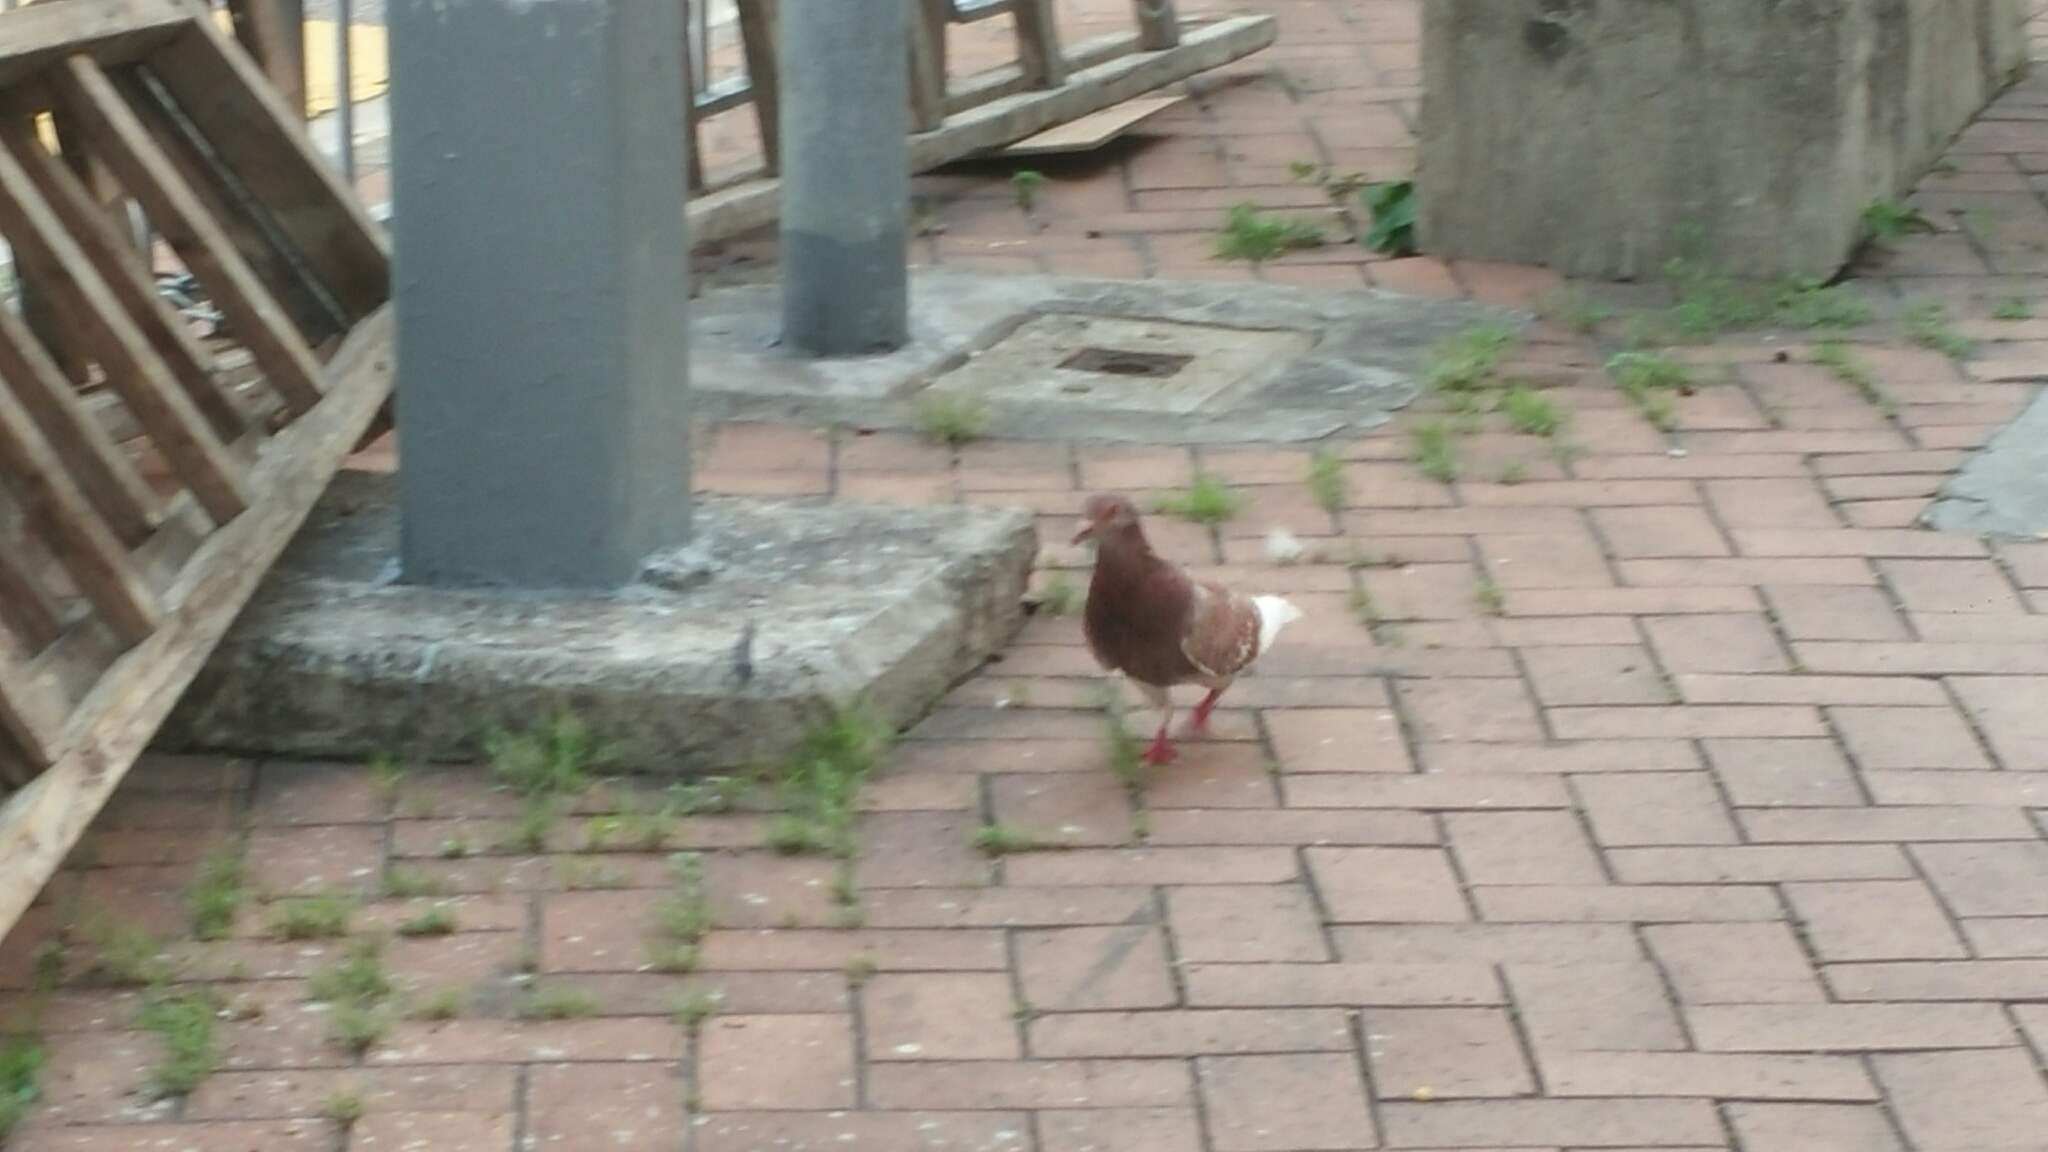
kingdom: Animalia
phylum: Chordata
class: Aves
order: Columbiformes
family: Columbidae
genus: Columba
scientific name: Columba livia
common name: Rock pigeon
